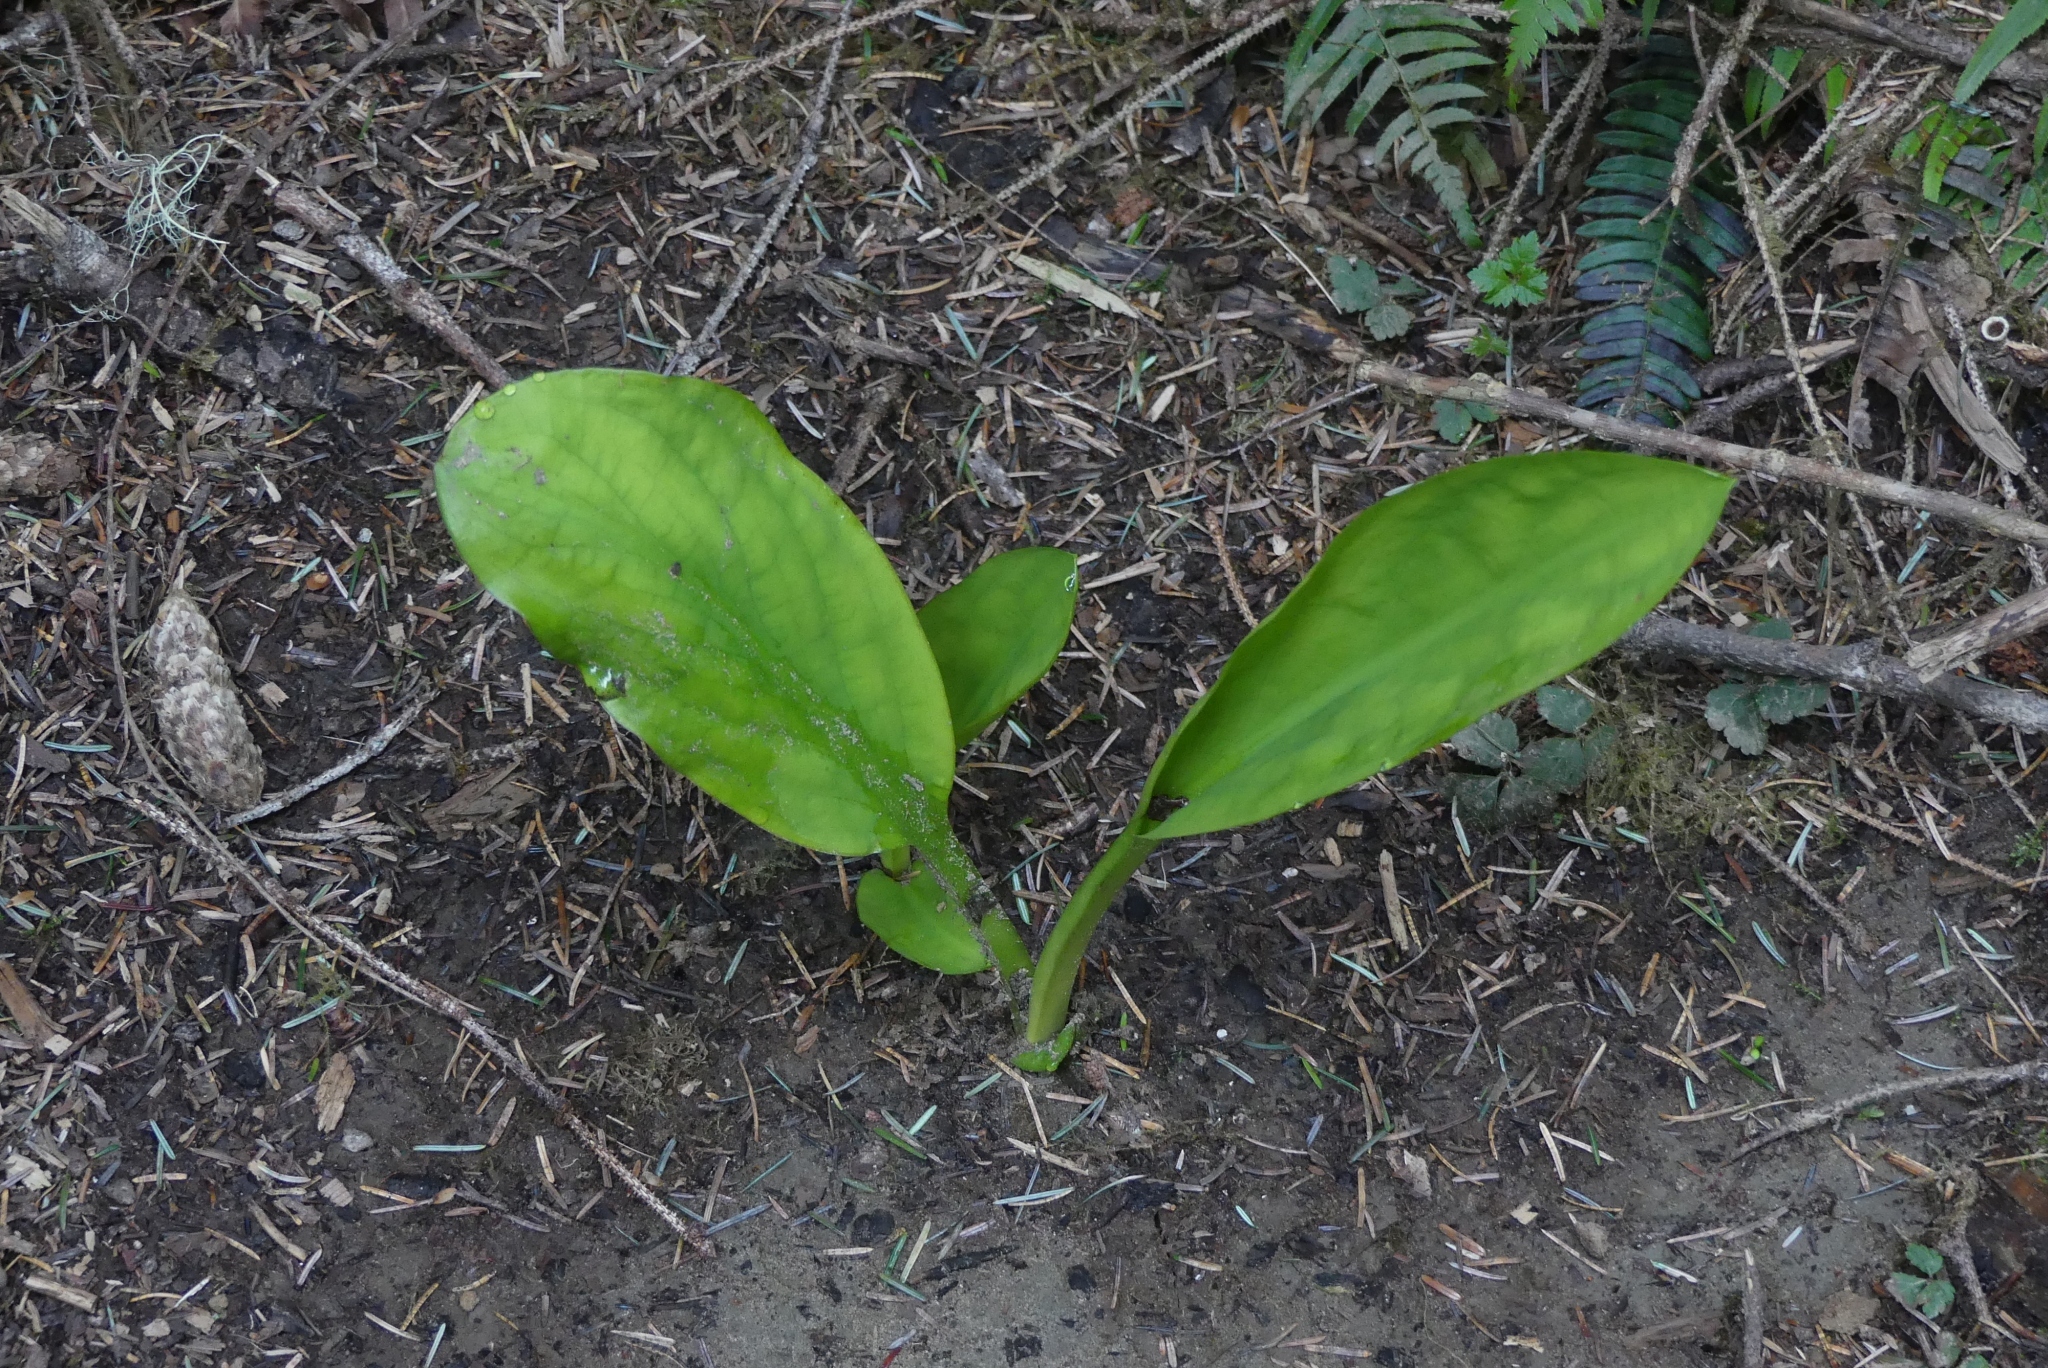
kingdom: Plantae
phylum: Tracheophyta
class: Liliopsida
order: Alismatales
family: Araceae
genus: Lysichiton
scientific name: Lysichiton americanus
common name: American skunk cabbage
